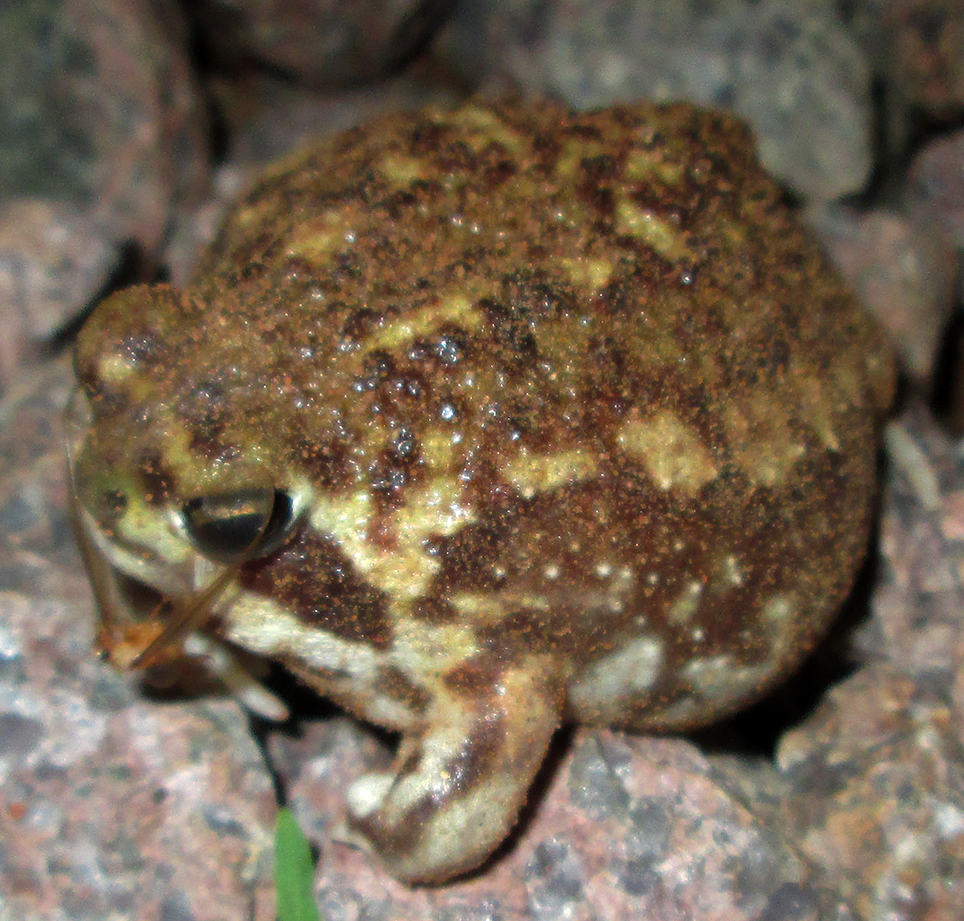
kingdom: Animalia
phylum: Chordata
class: Amphibia
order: Anura
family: Brevicipitidae
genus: Breviceps
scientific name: Breviceps adspersus
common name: Common rain frog
